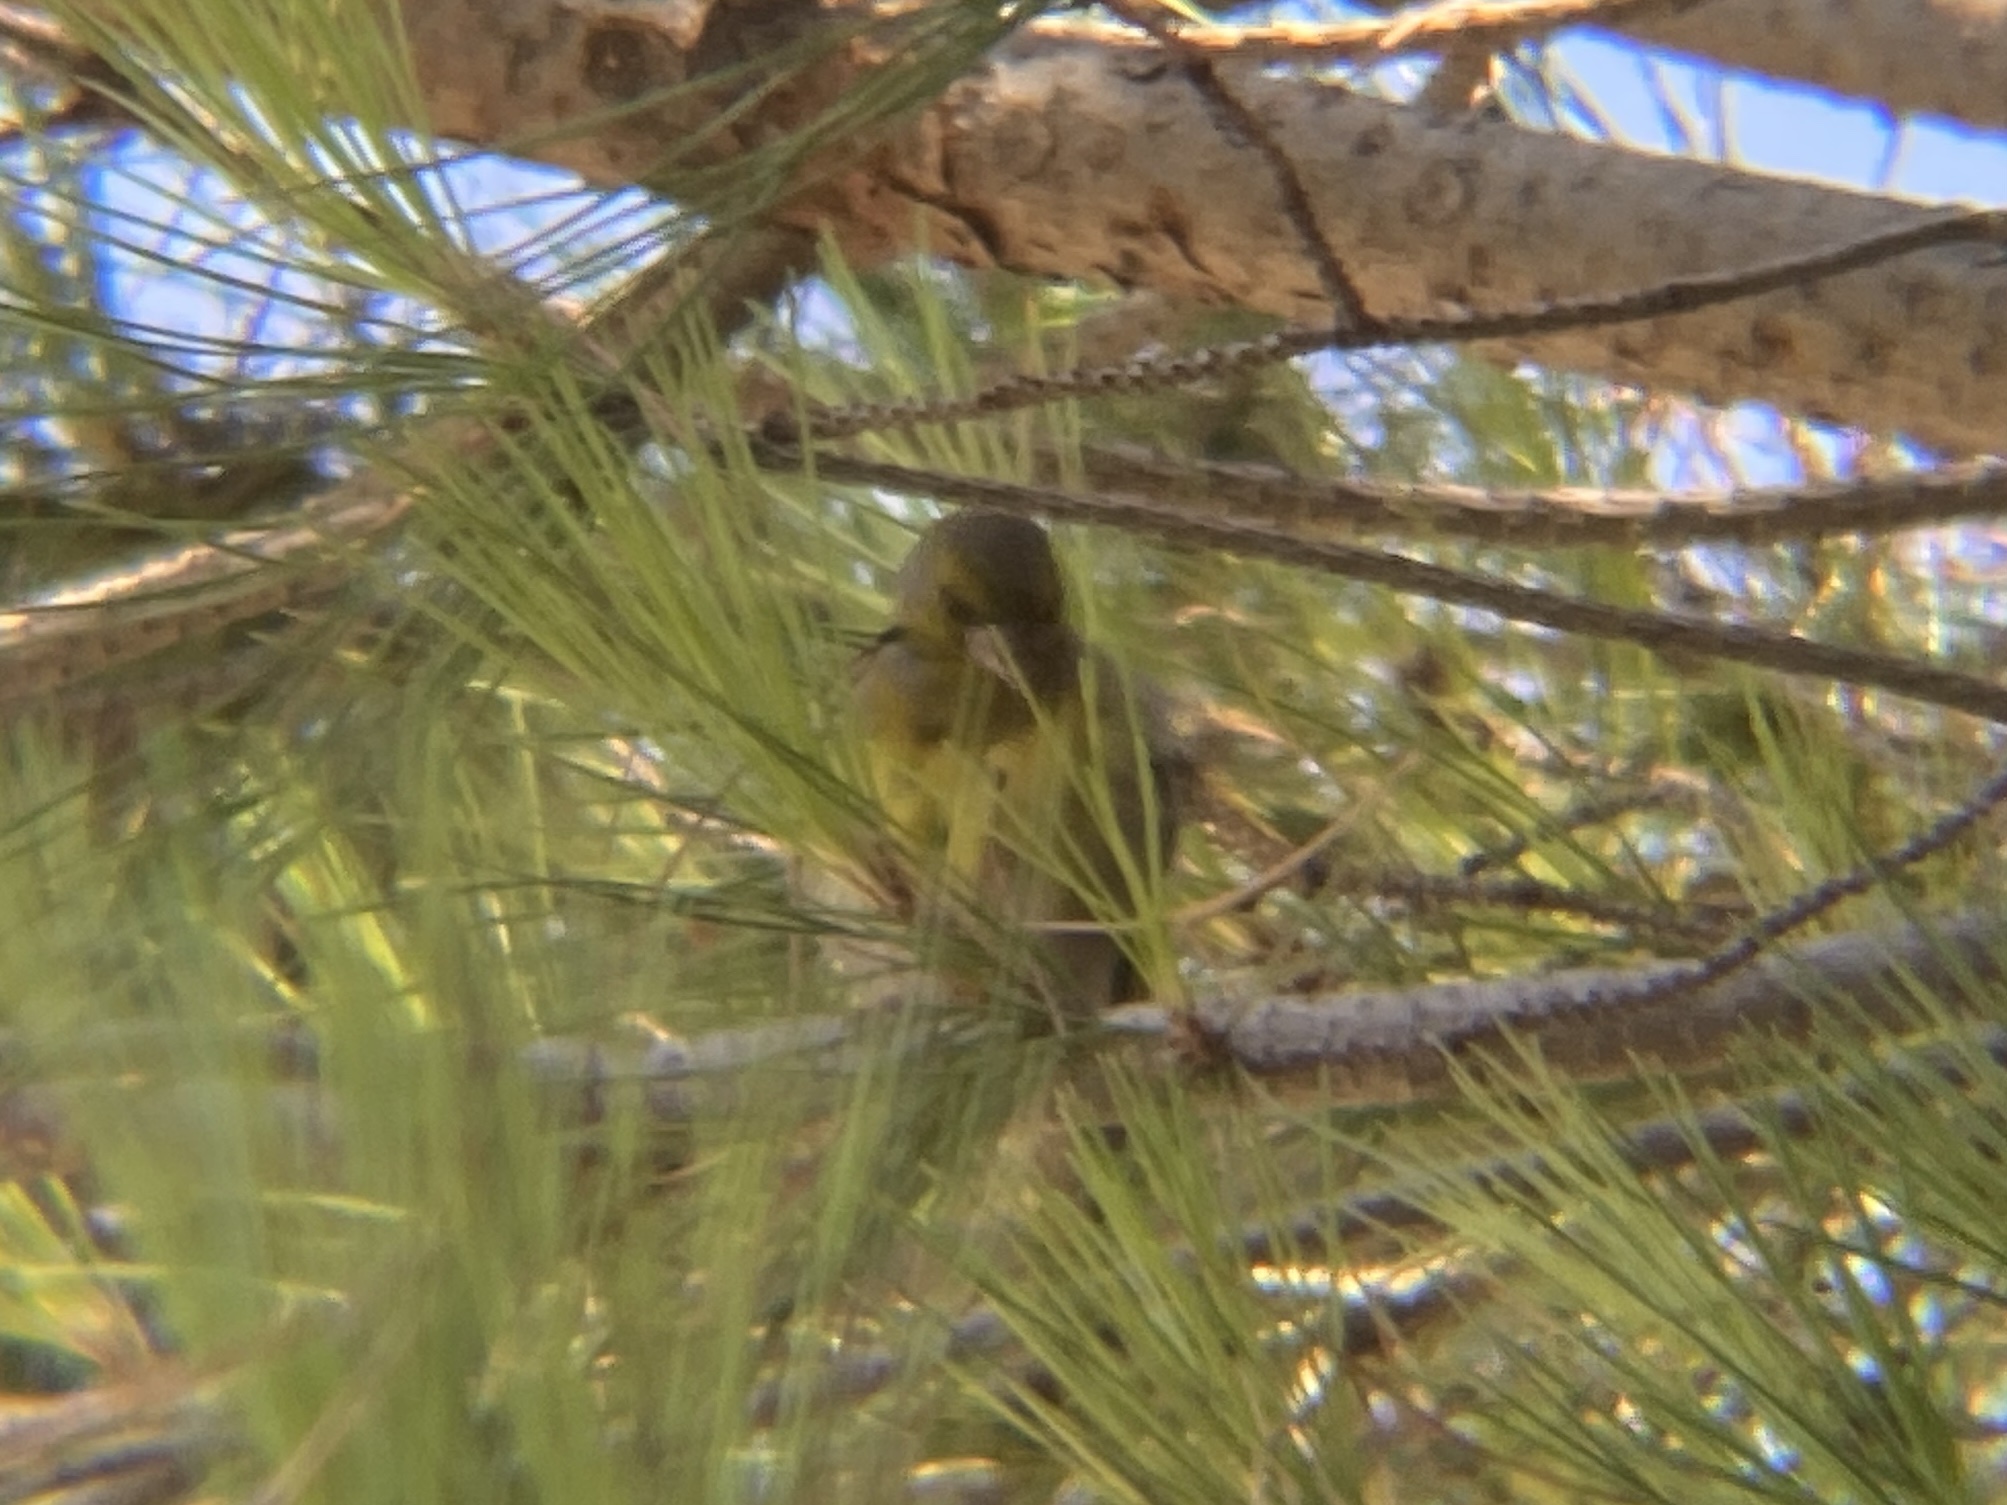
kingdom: Plantae
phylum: Tracheophyta
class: Liliopsida
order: Poales
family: Poaceae
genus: Chloris
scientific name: Chloris chloris
